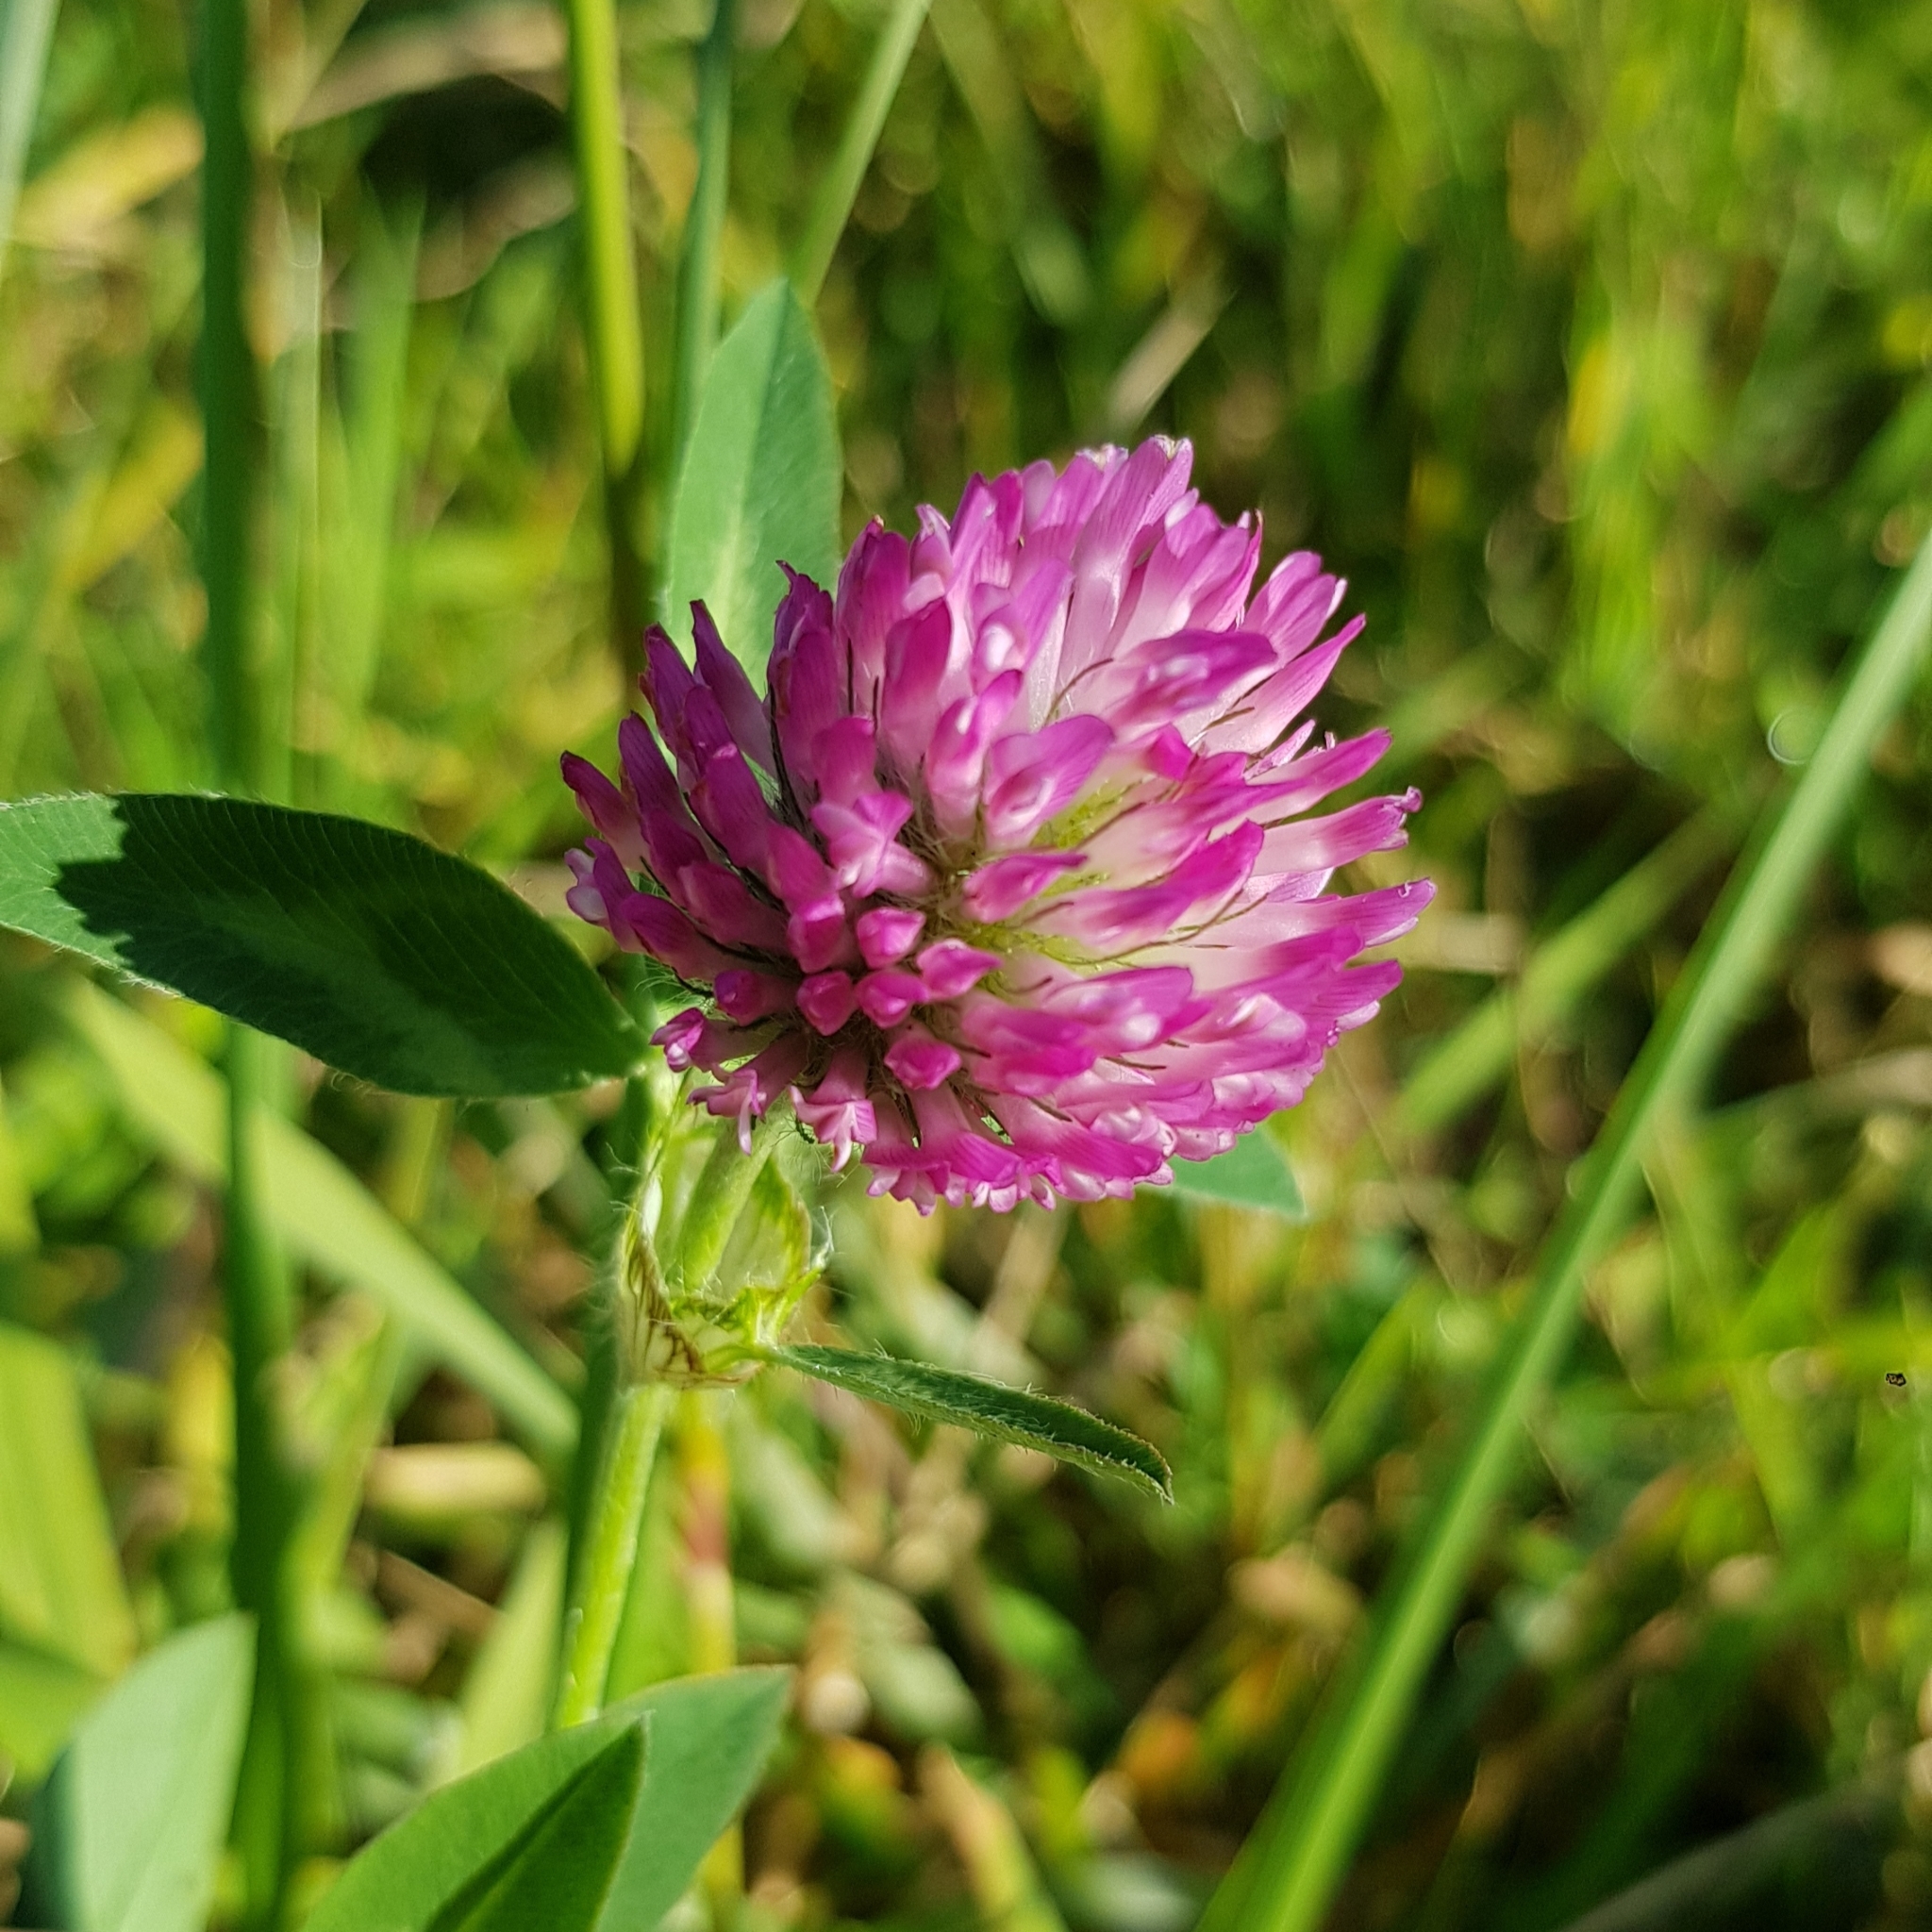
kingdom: Plantae
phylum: Tracheophyta
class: Magnoliopsida
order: Fabales
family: Fabaceae
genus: Trifolium
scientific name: Trifolium pratense
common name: Red clover
